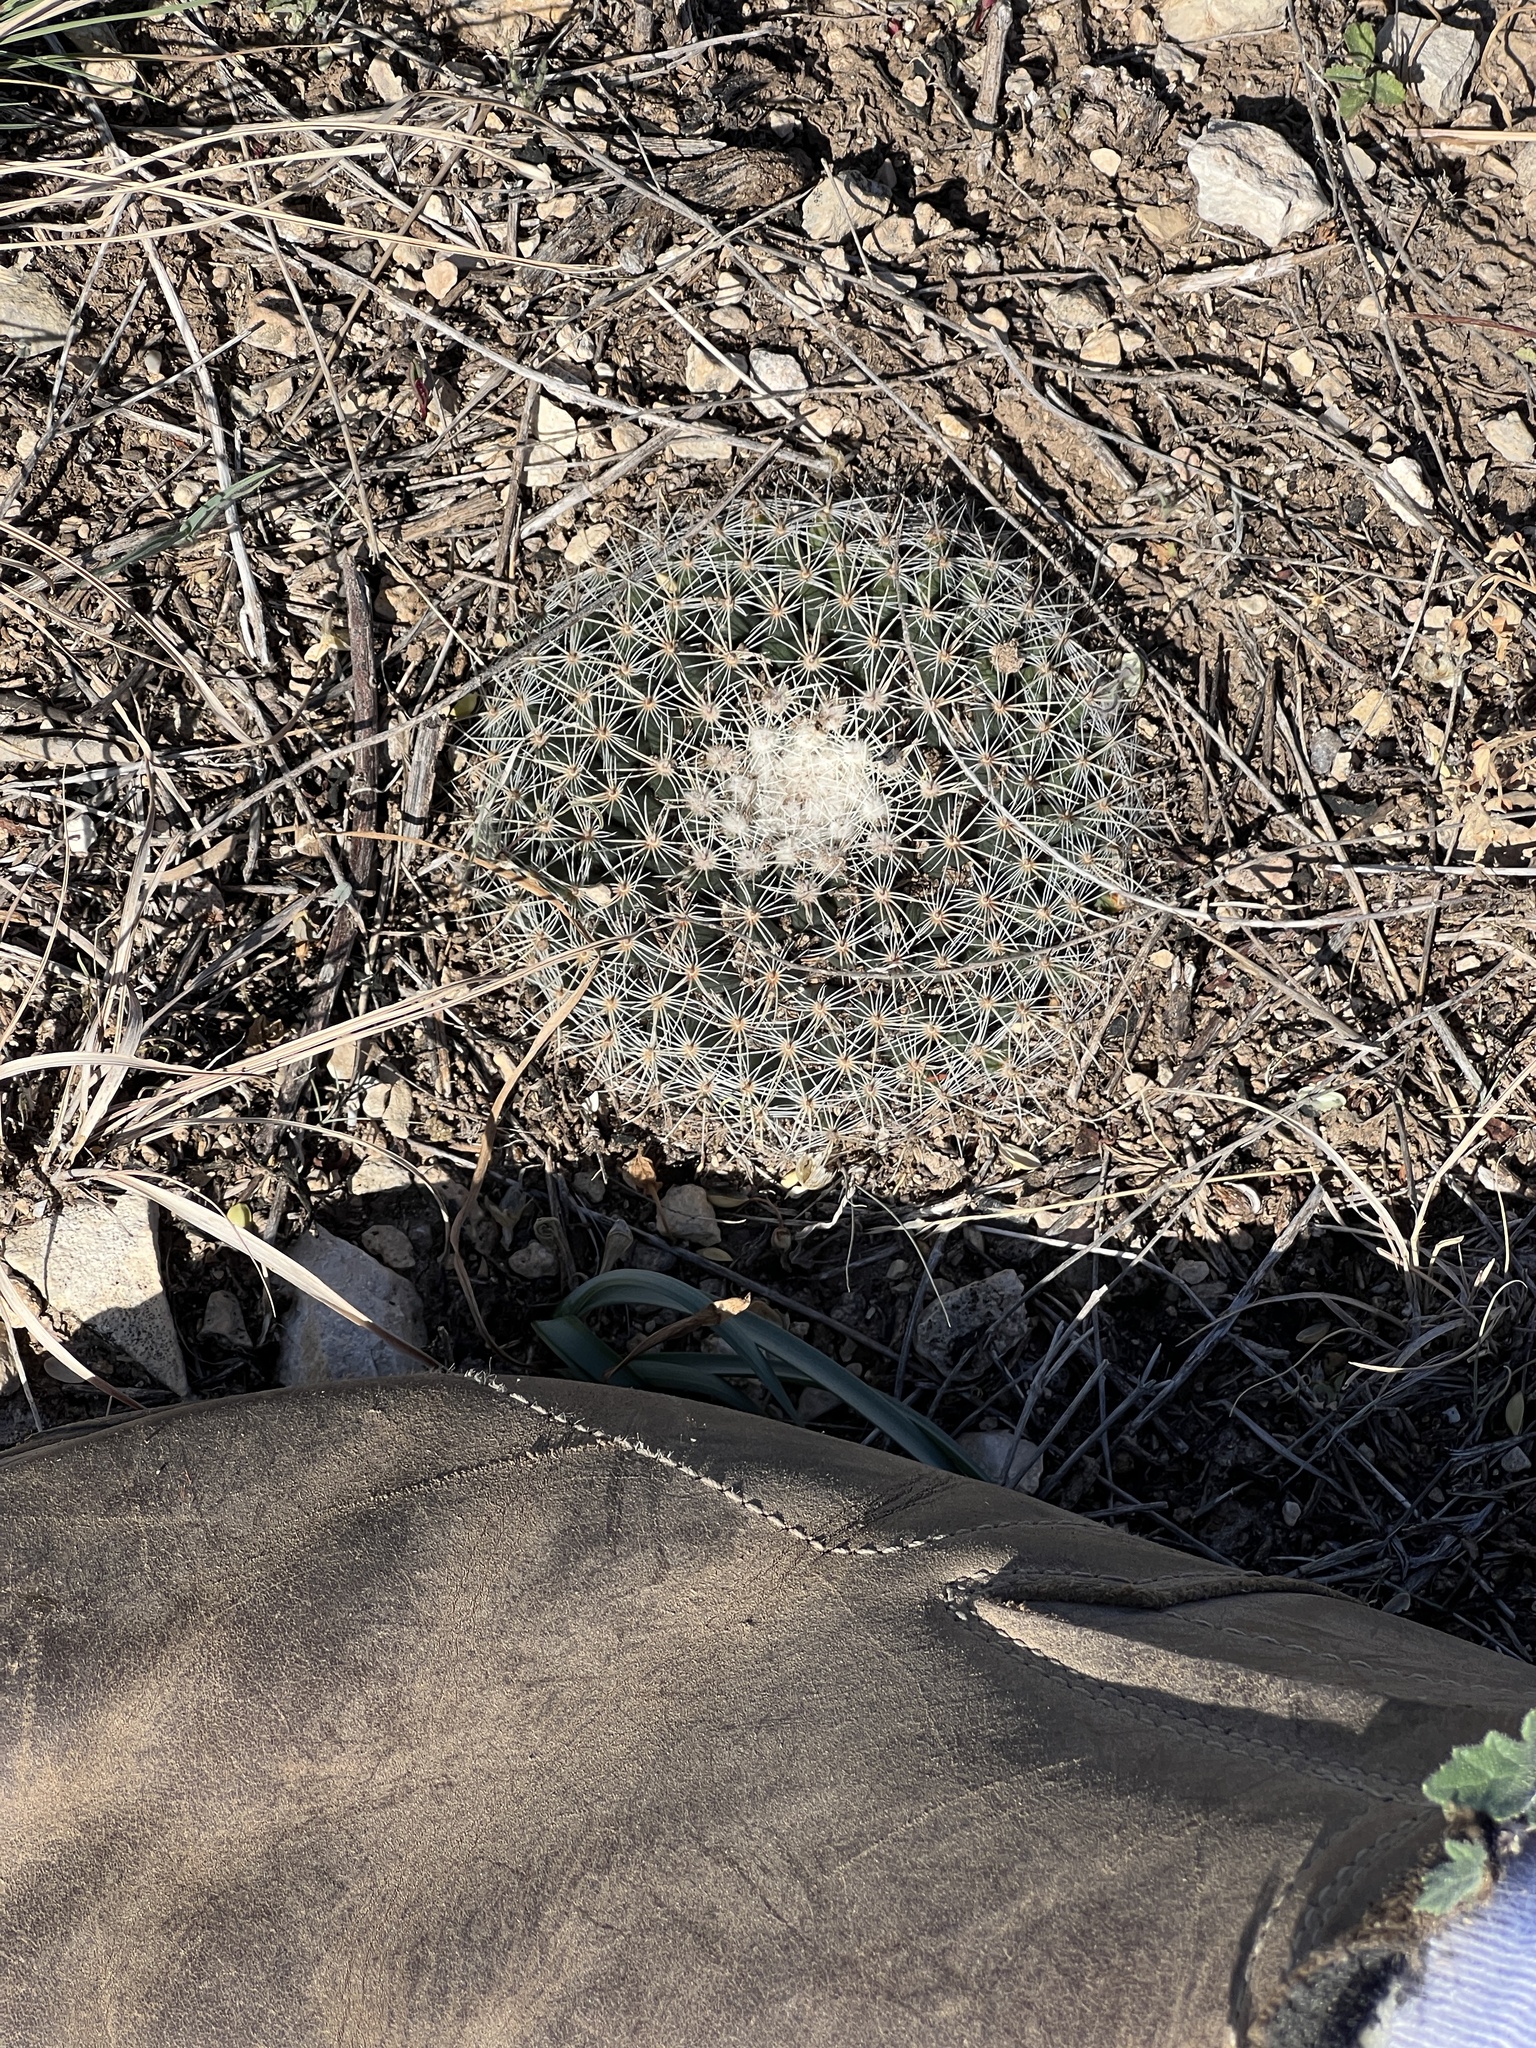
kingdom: Plantae
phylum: Tracheophyta
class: Magnoliopsida
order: Caryophyllales
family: Cactaceae
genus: Mammillaria
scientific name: Mammillaria heyderi
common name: Little nipple cactus
